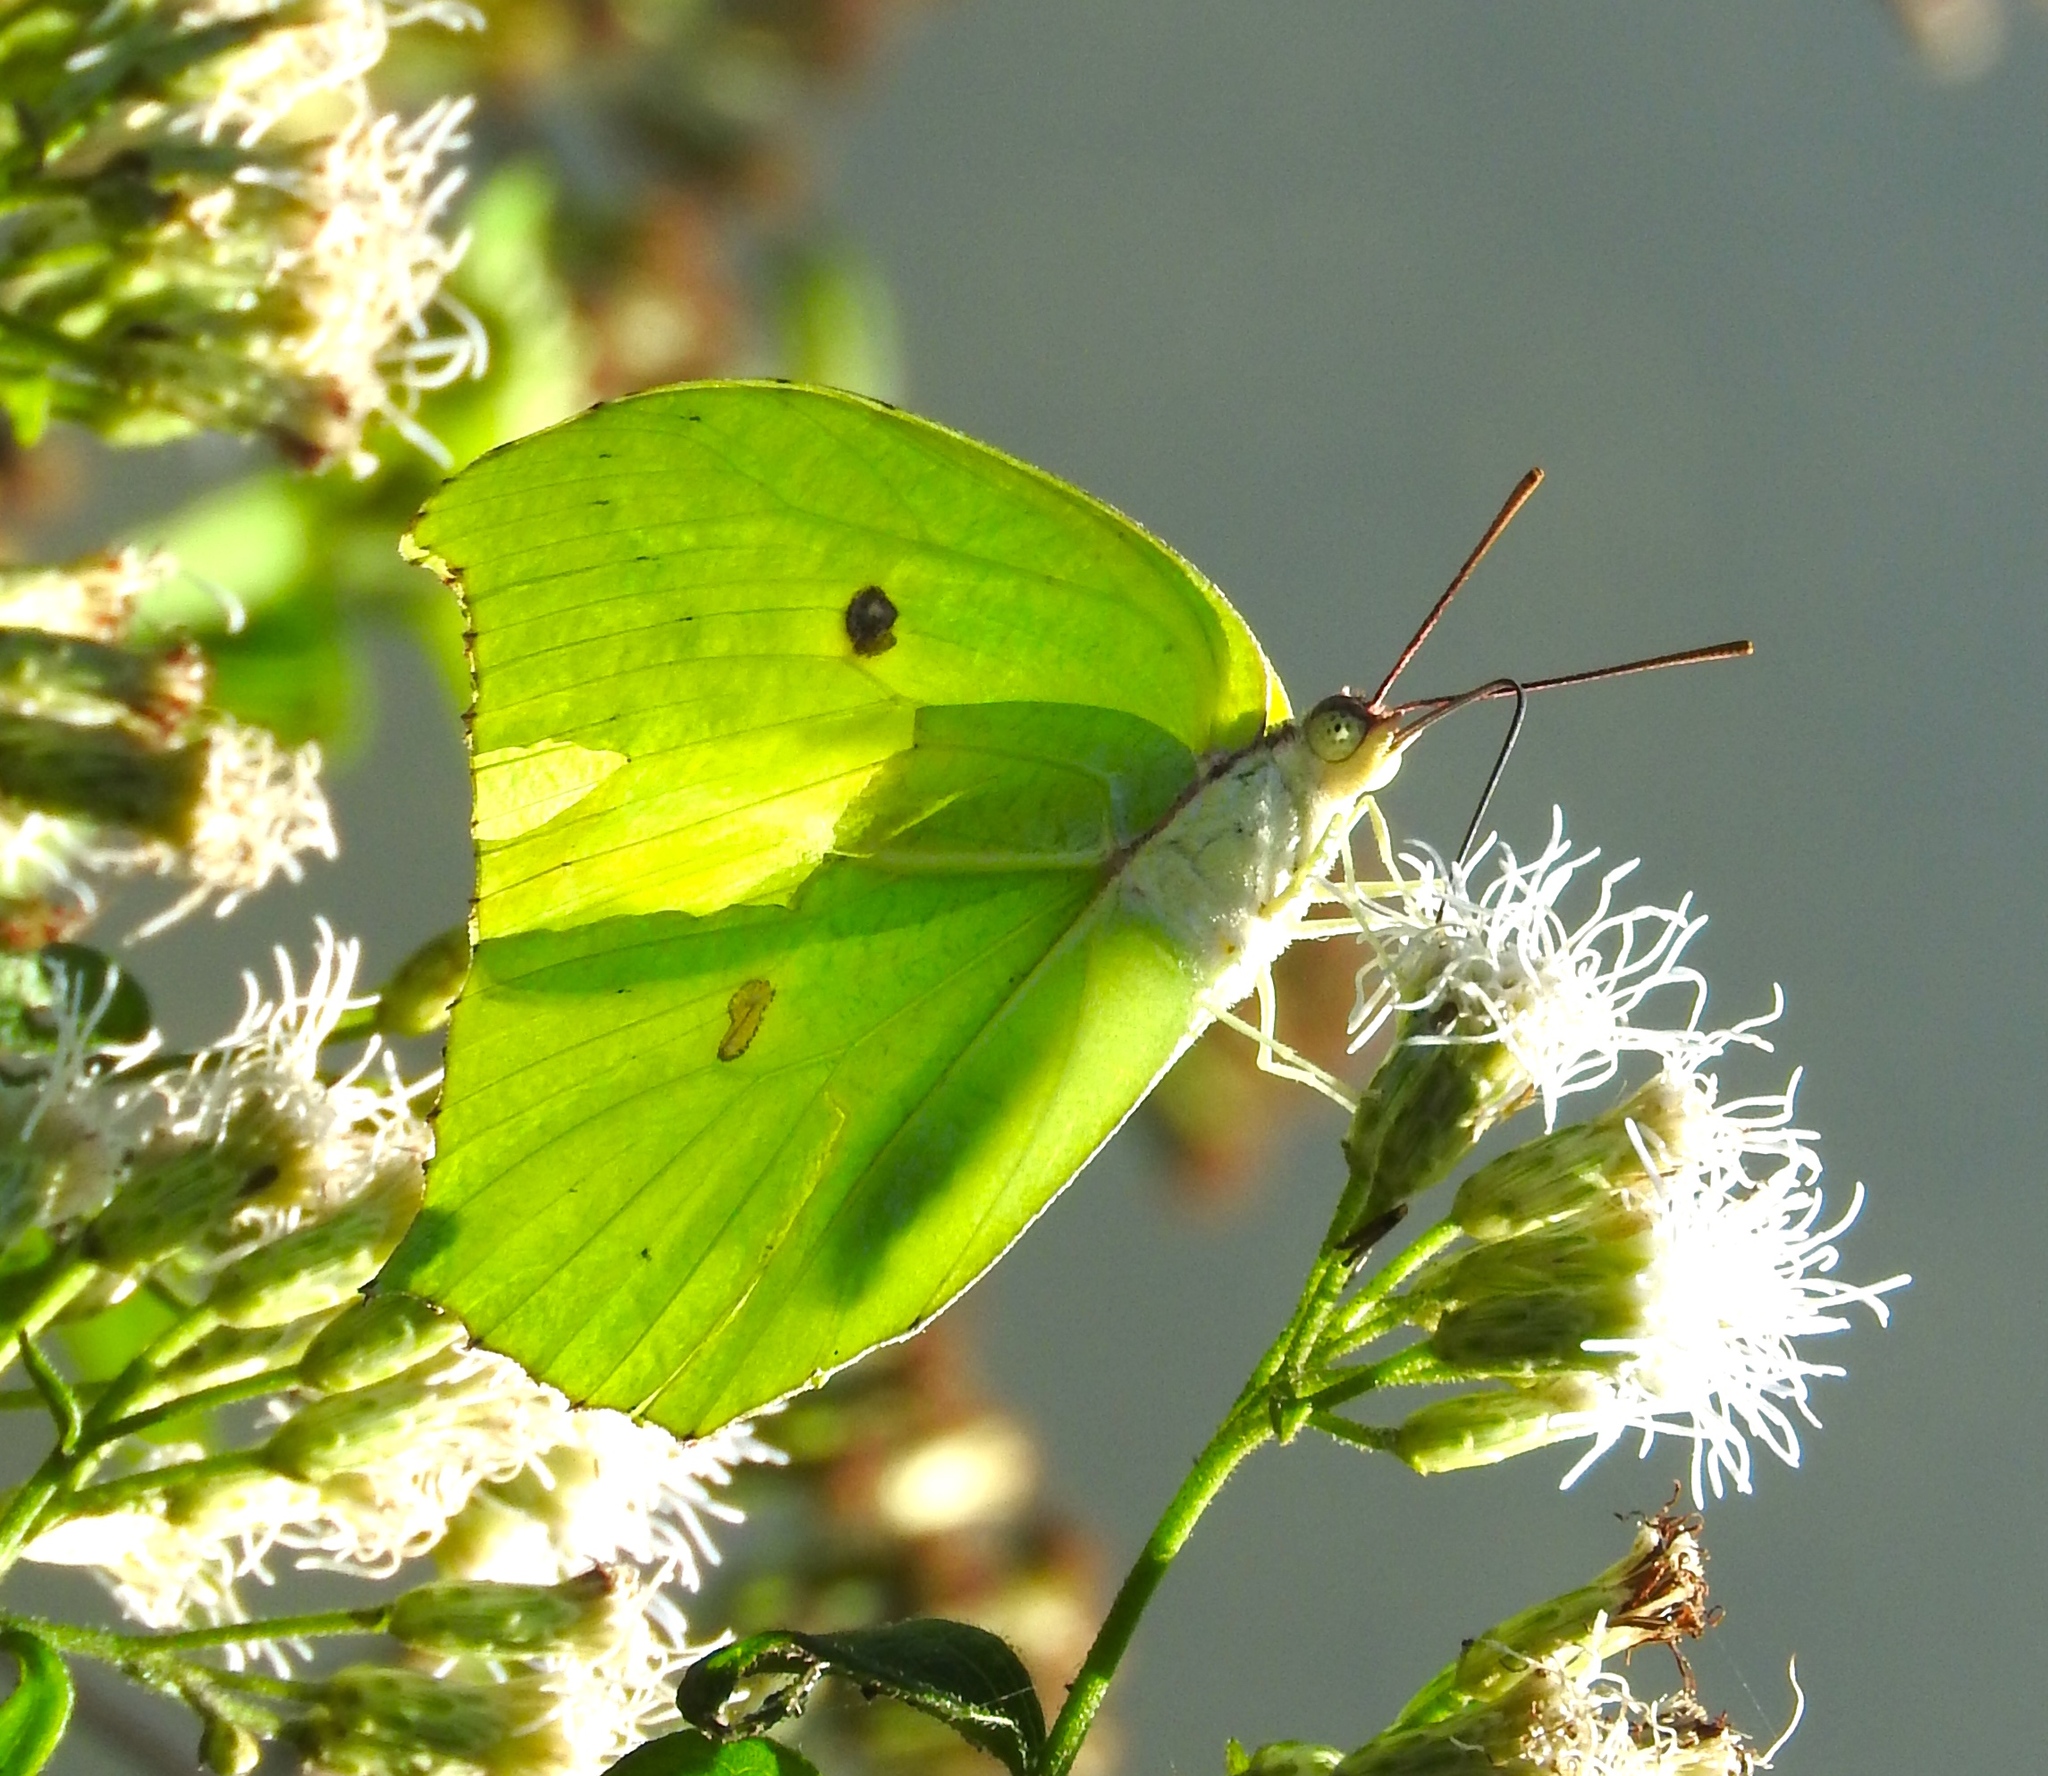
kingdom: Animalia
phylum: Arthropoda
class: Insecta
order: Lepidoptera
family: Pieridae
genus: Anteos
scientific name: Anteos maerula
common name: Angled sulphur
